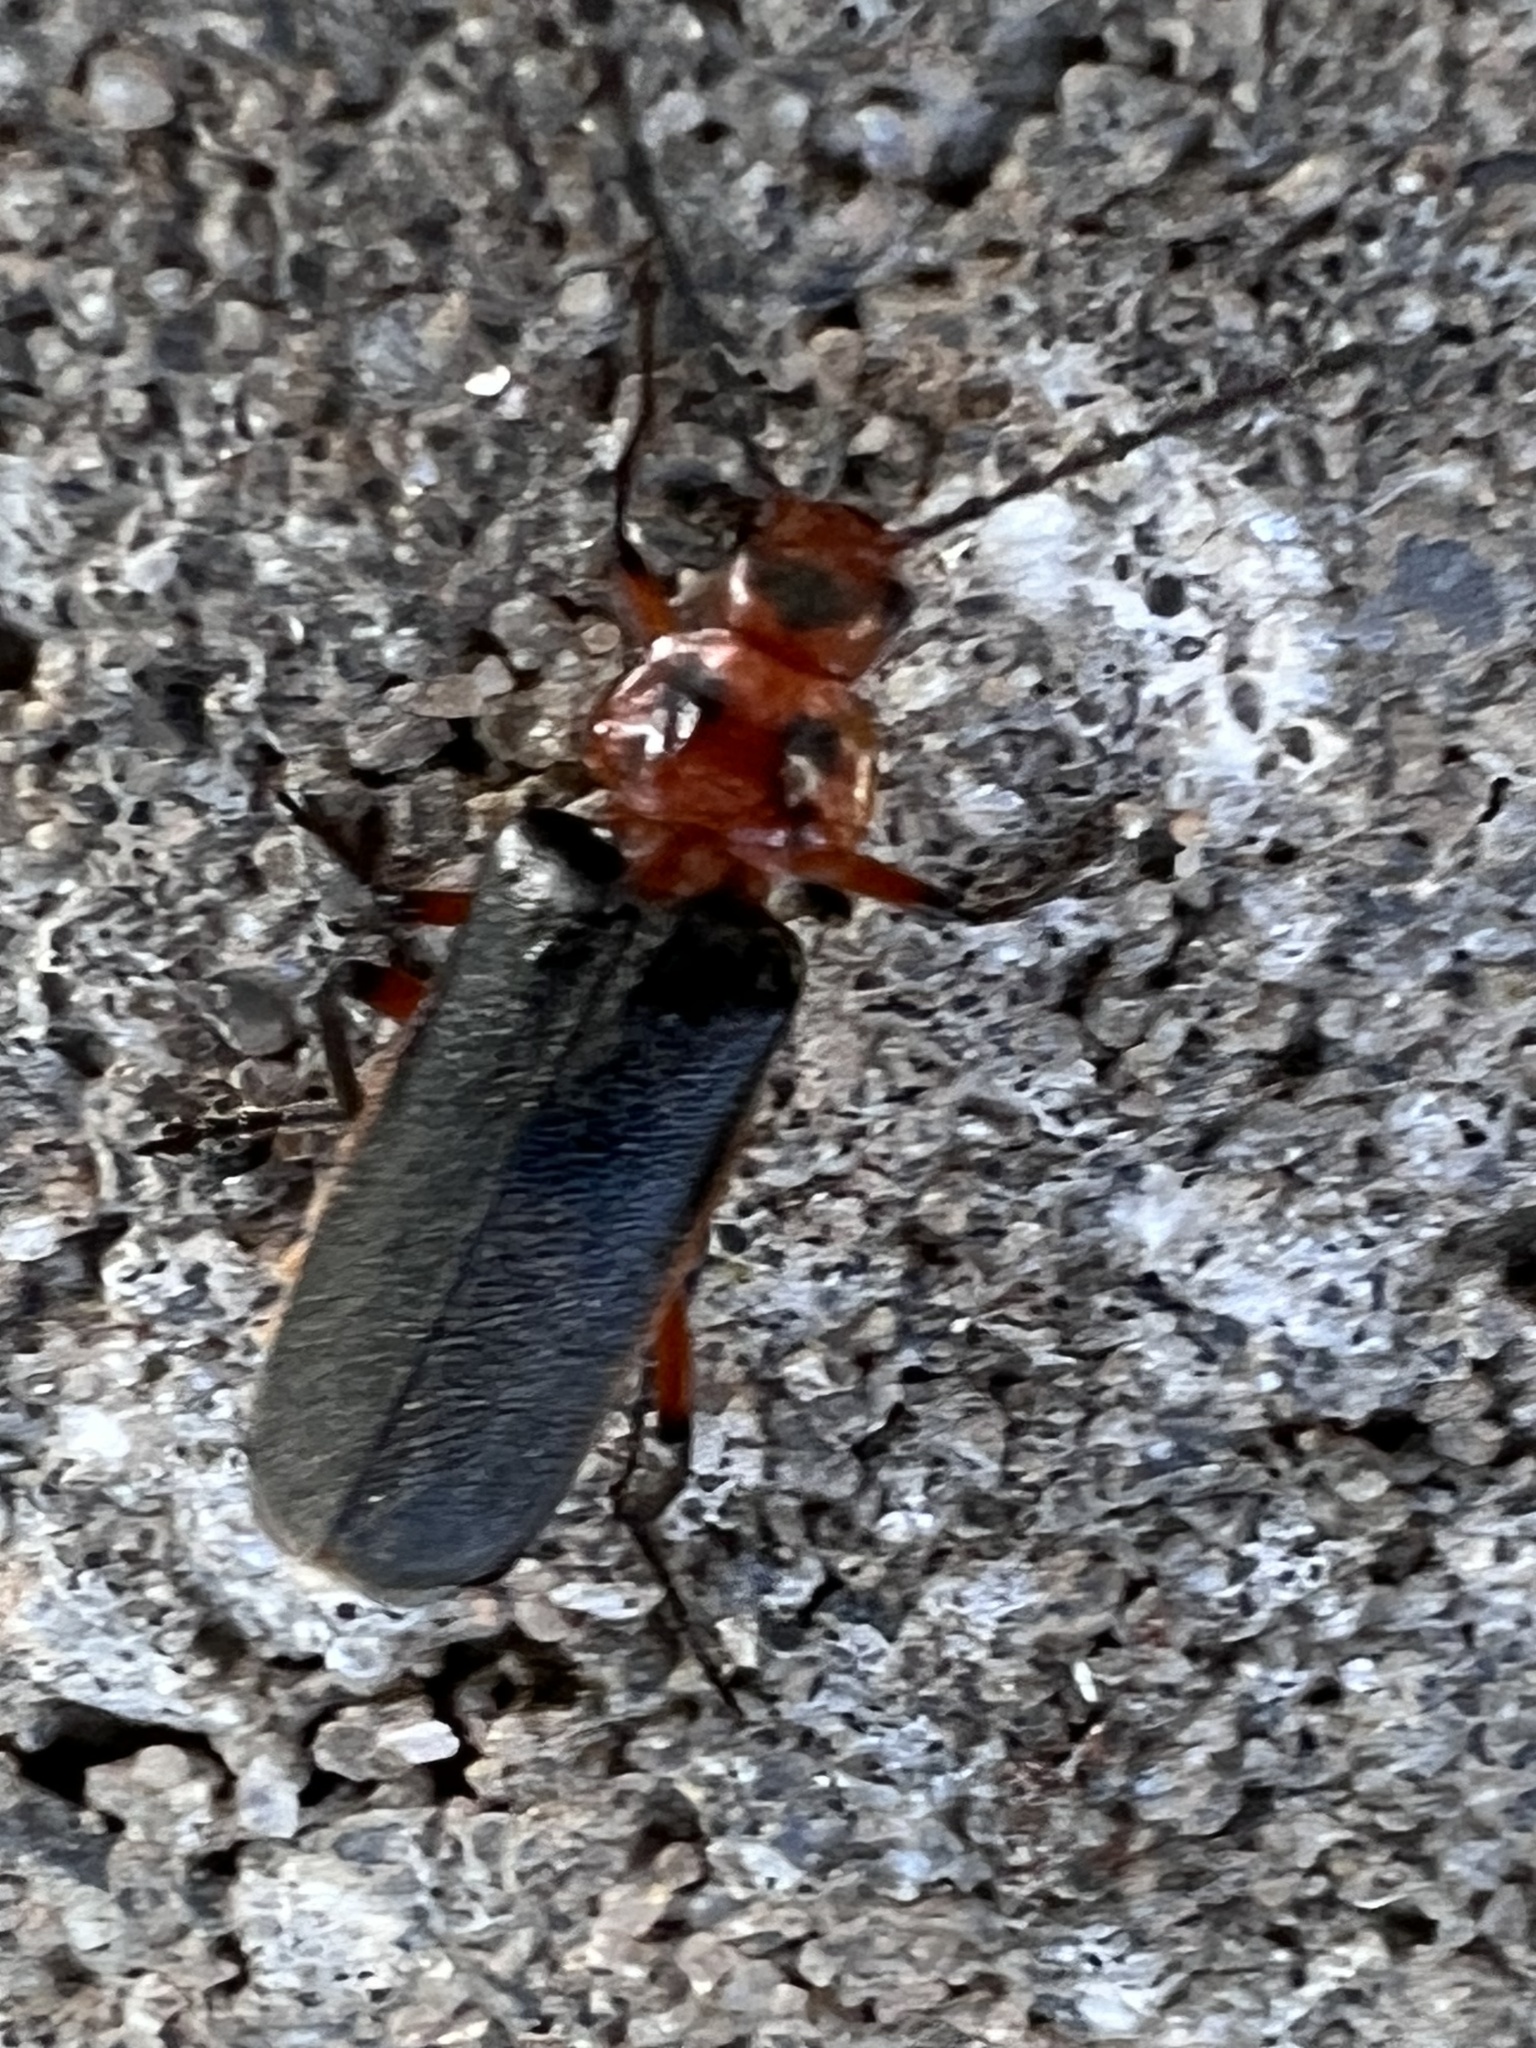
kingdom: Animalia
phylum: Arthropoda
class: Insecta
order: Coleoptera
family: Cantharidae
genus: Atalantycha
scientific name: Atalantycha bilineata
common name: Two-lined leatherwing
